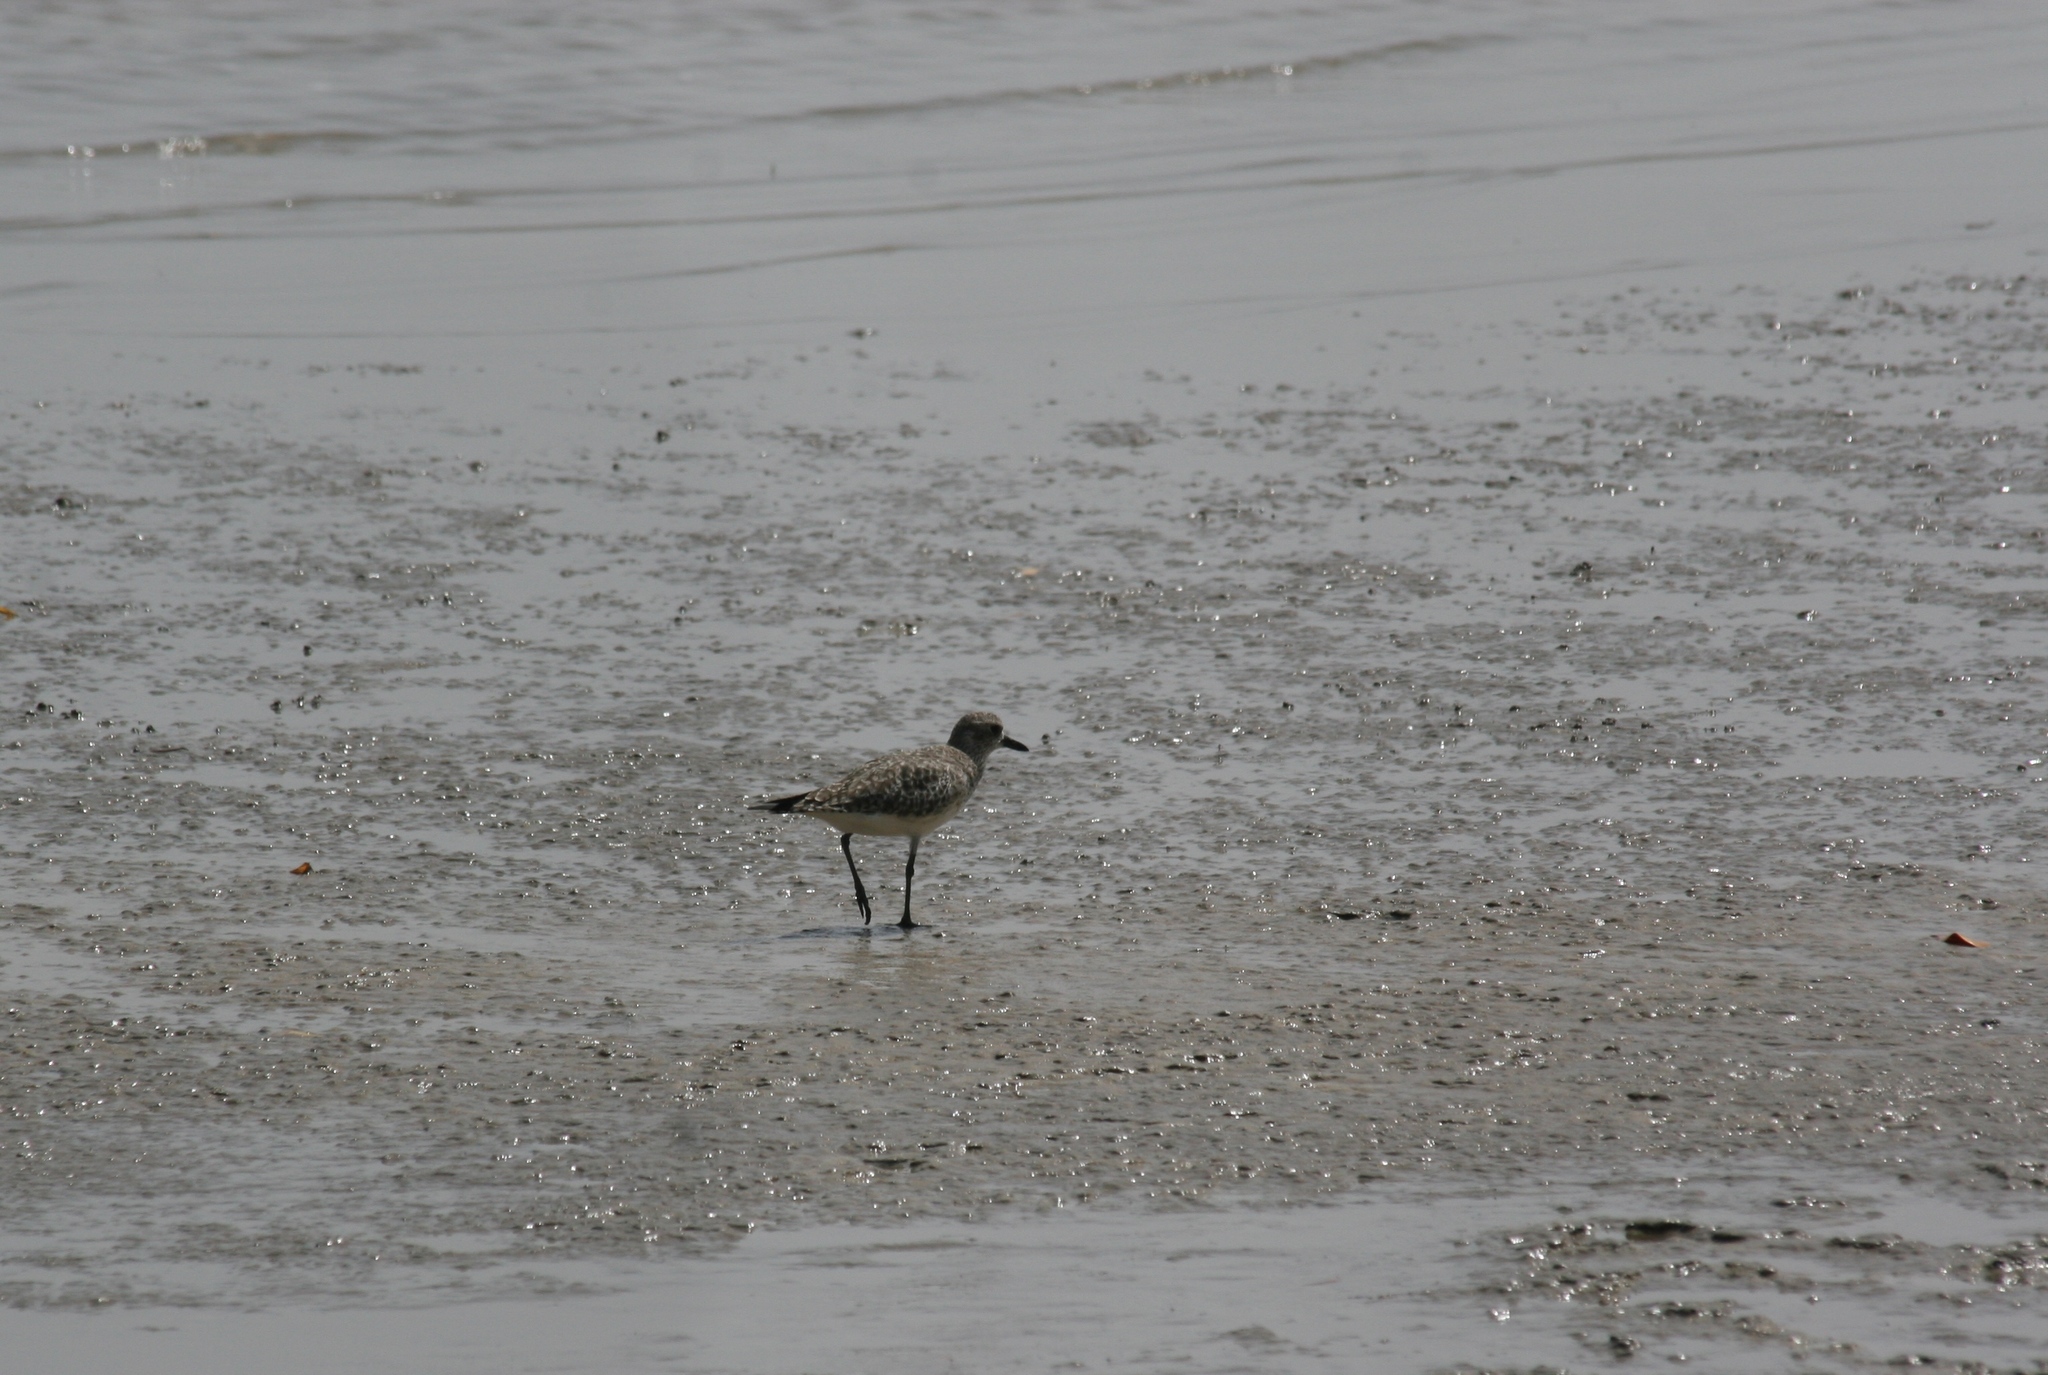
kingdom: Animalia
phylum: Chordata
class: Aves
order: Charadriiformes
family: Charadriidae
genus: Pluvialis
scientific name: Pluvialis squatarola
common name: Grey plover
